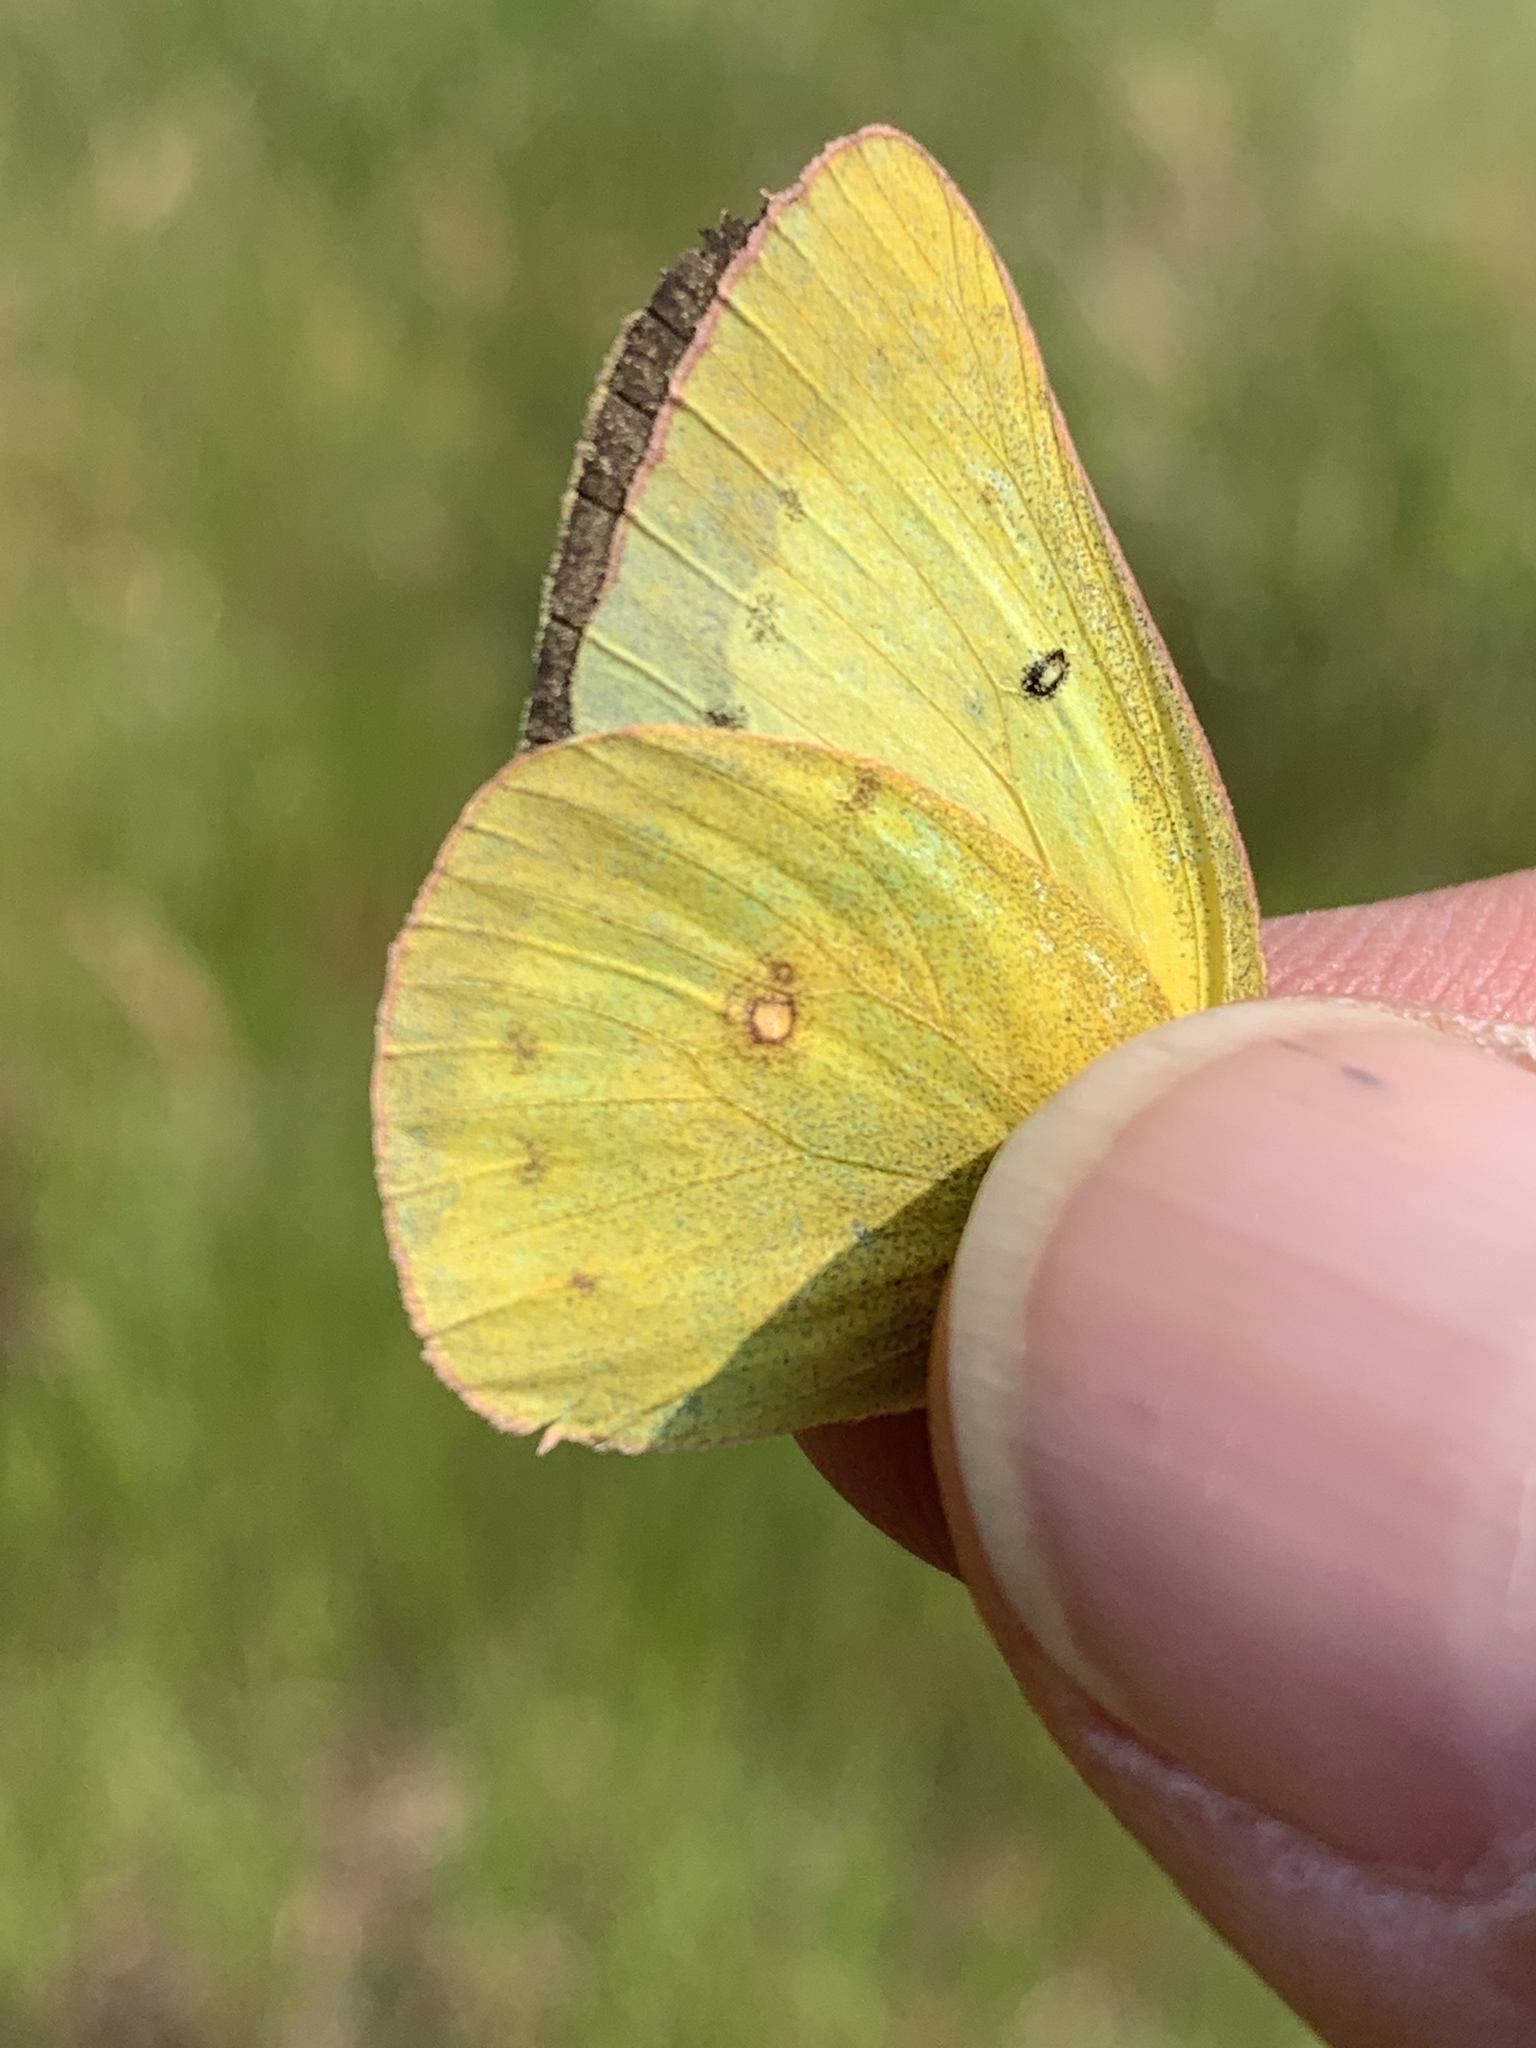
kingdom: Animalia
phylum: Arthropoda
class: Insecta
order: Lepidoptera
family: Pieridae
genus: Colias
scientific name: Colias philodice
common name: Clouded sulphur
